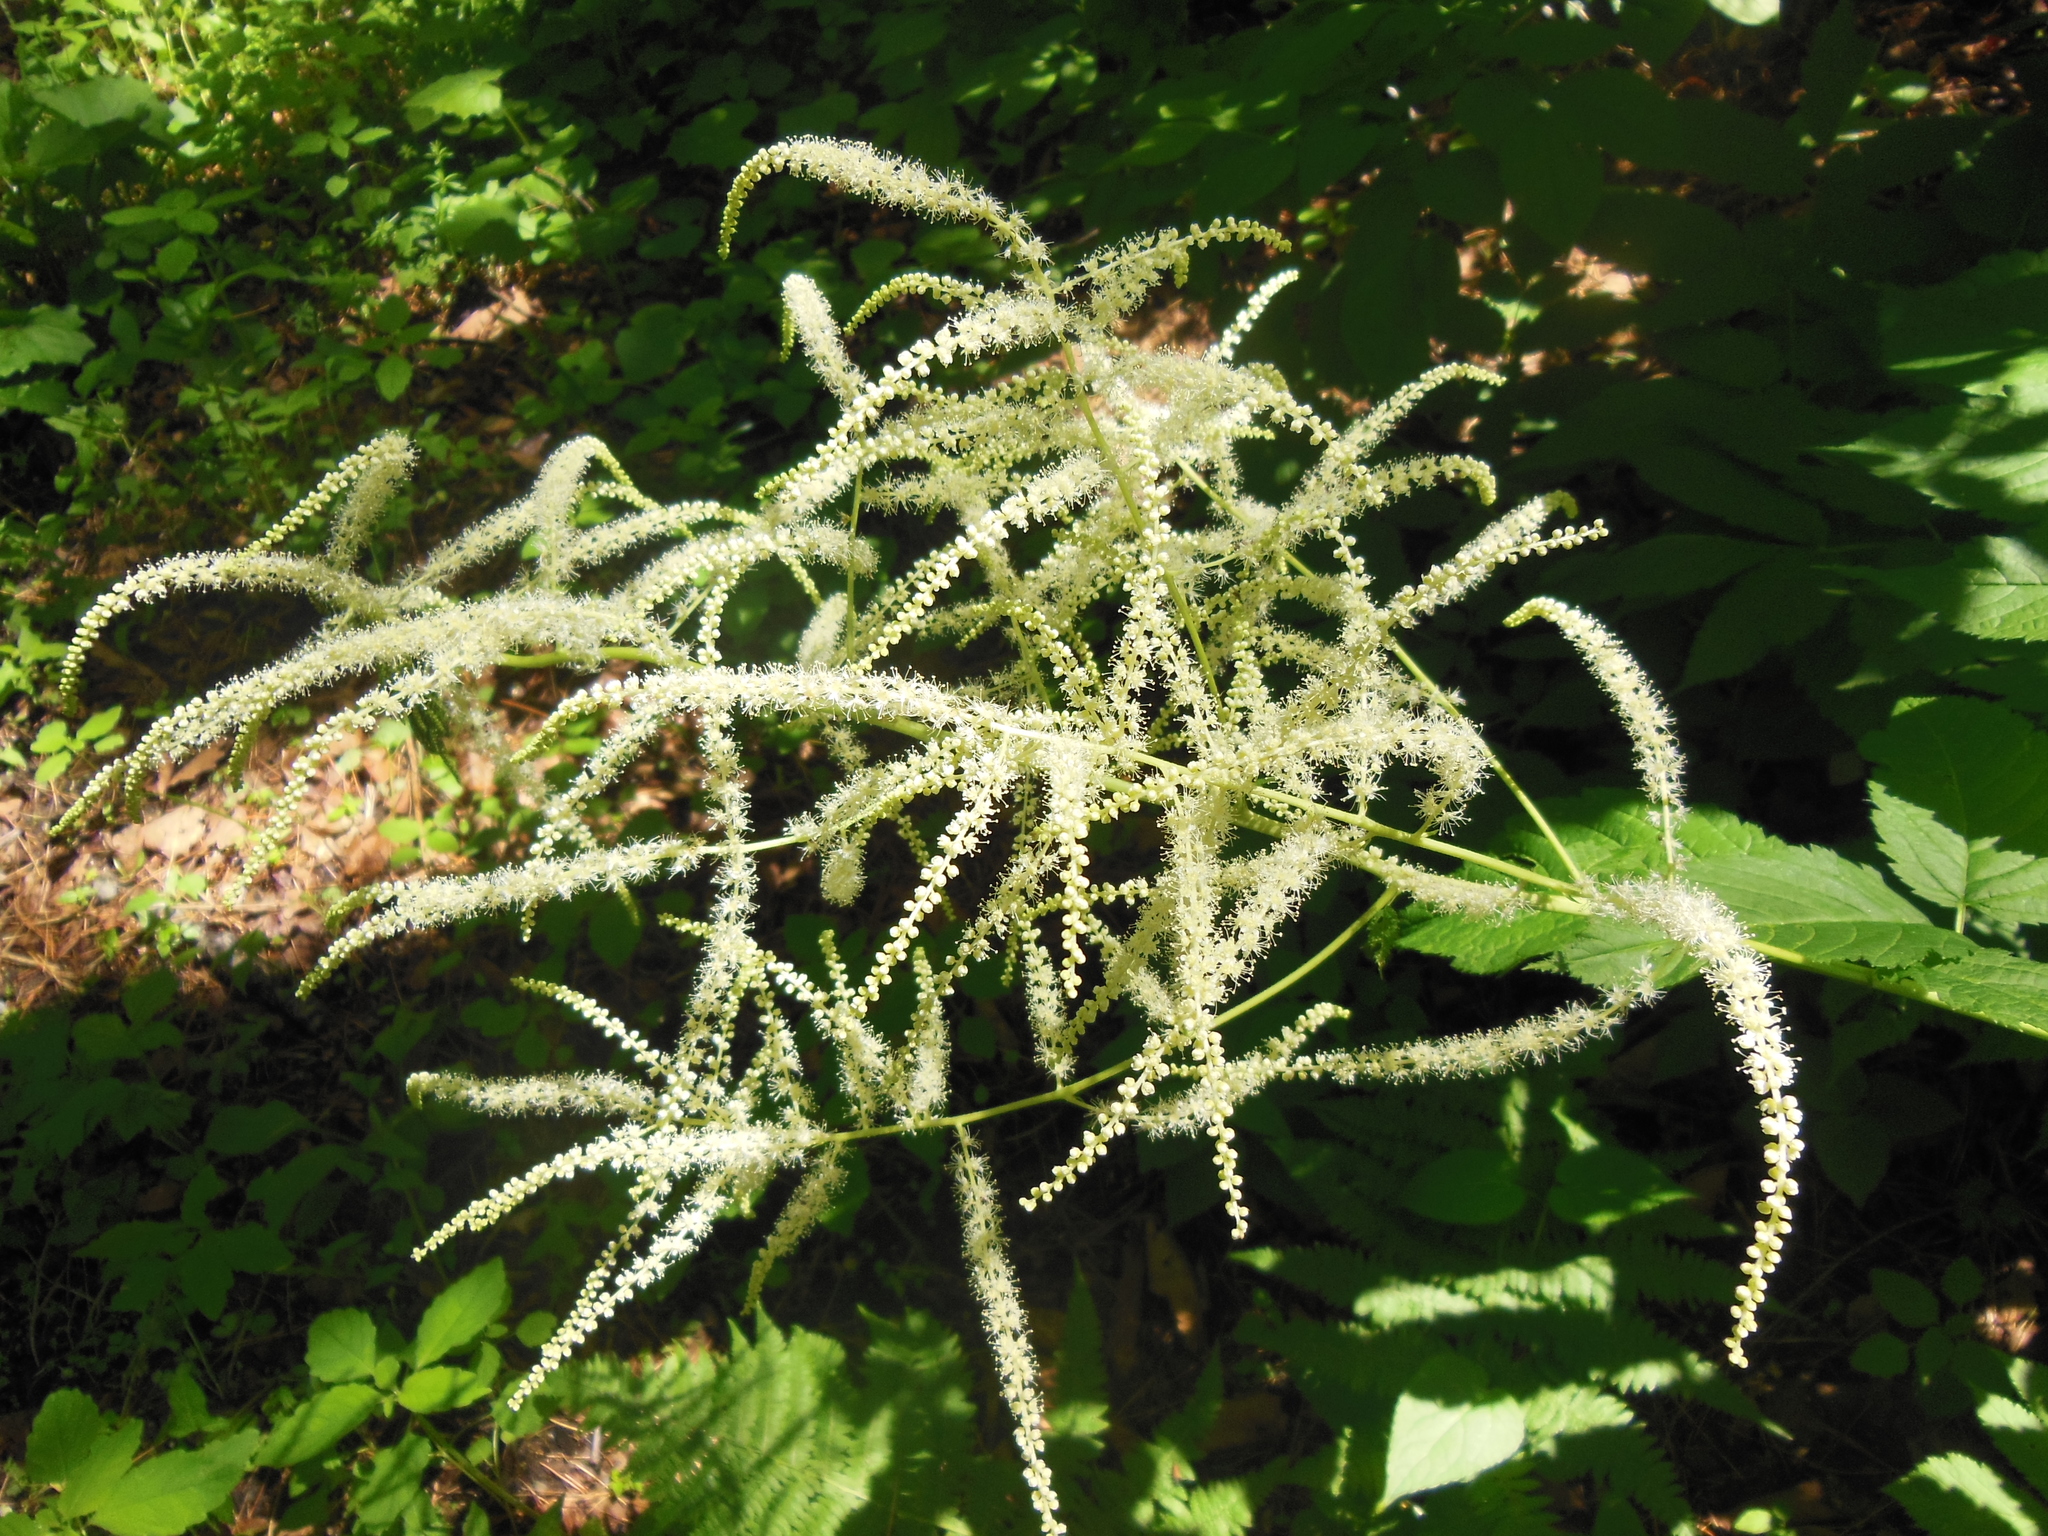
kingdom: Plantae
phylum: Tracheophyta
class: Magnoliopsida
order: Rosales
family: Rosaceae
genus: Aruncus
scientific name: Aruncus dioicus
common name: Buck's-beard
